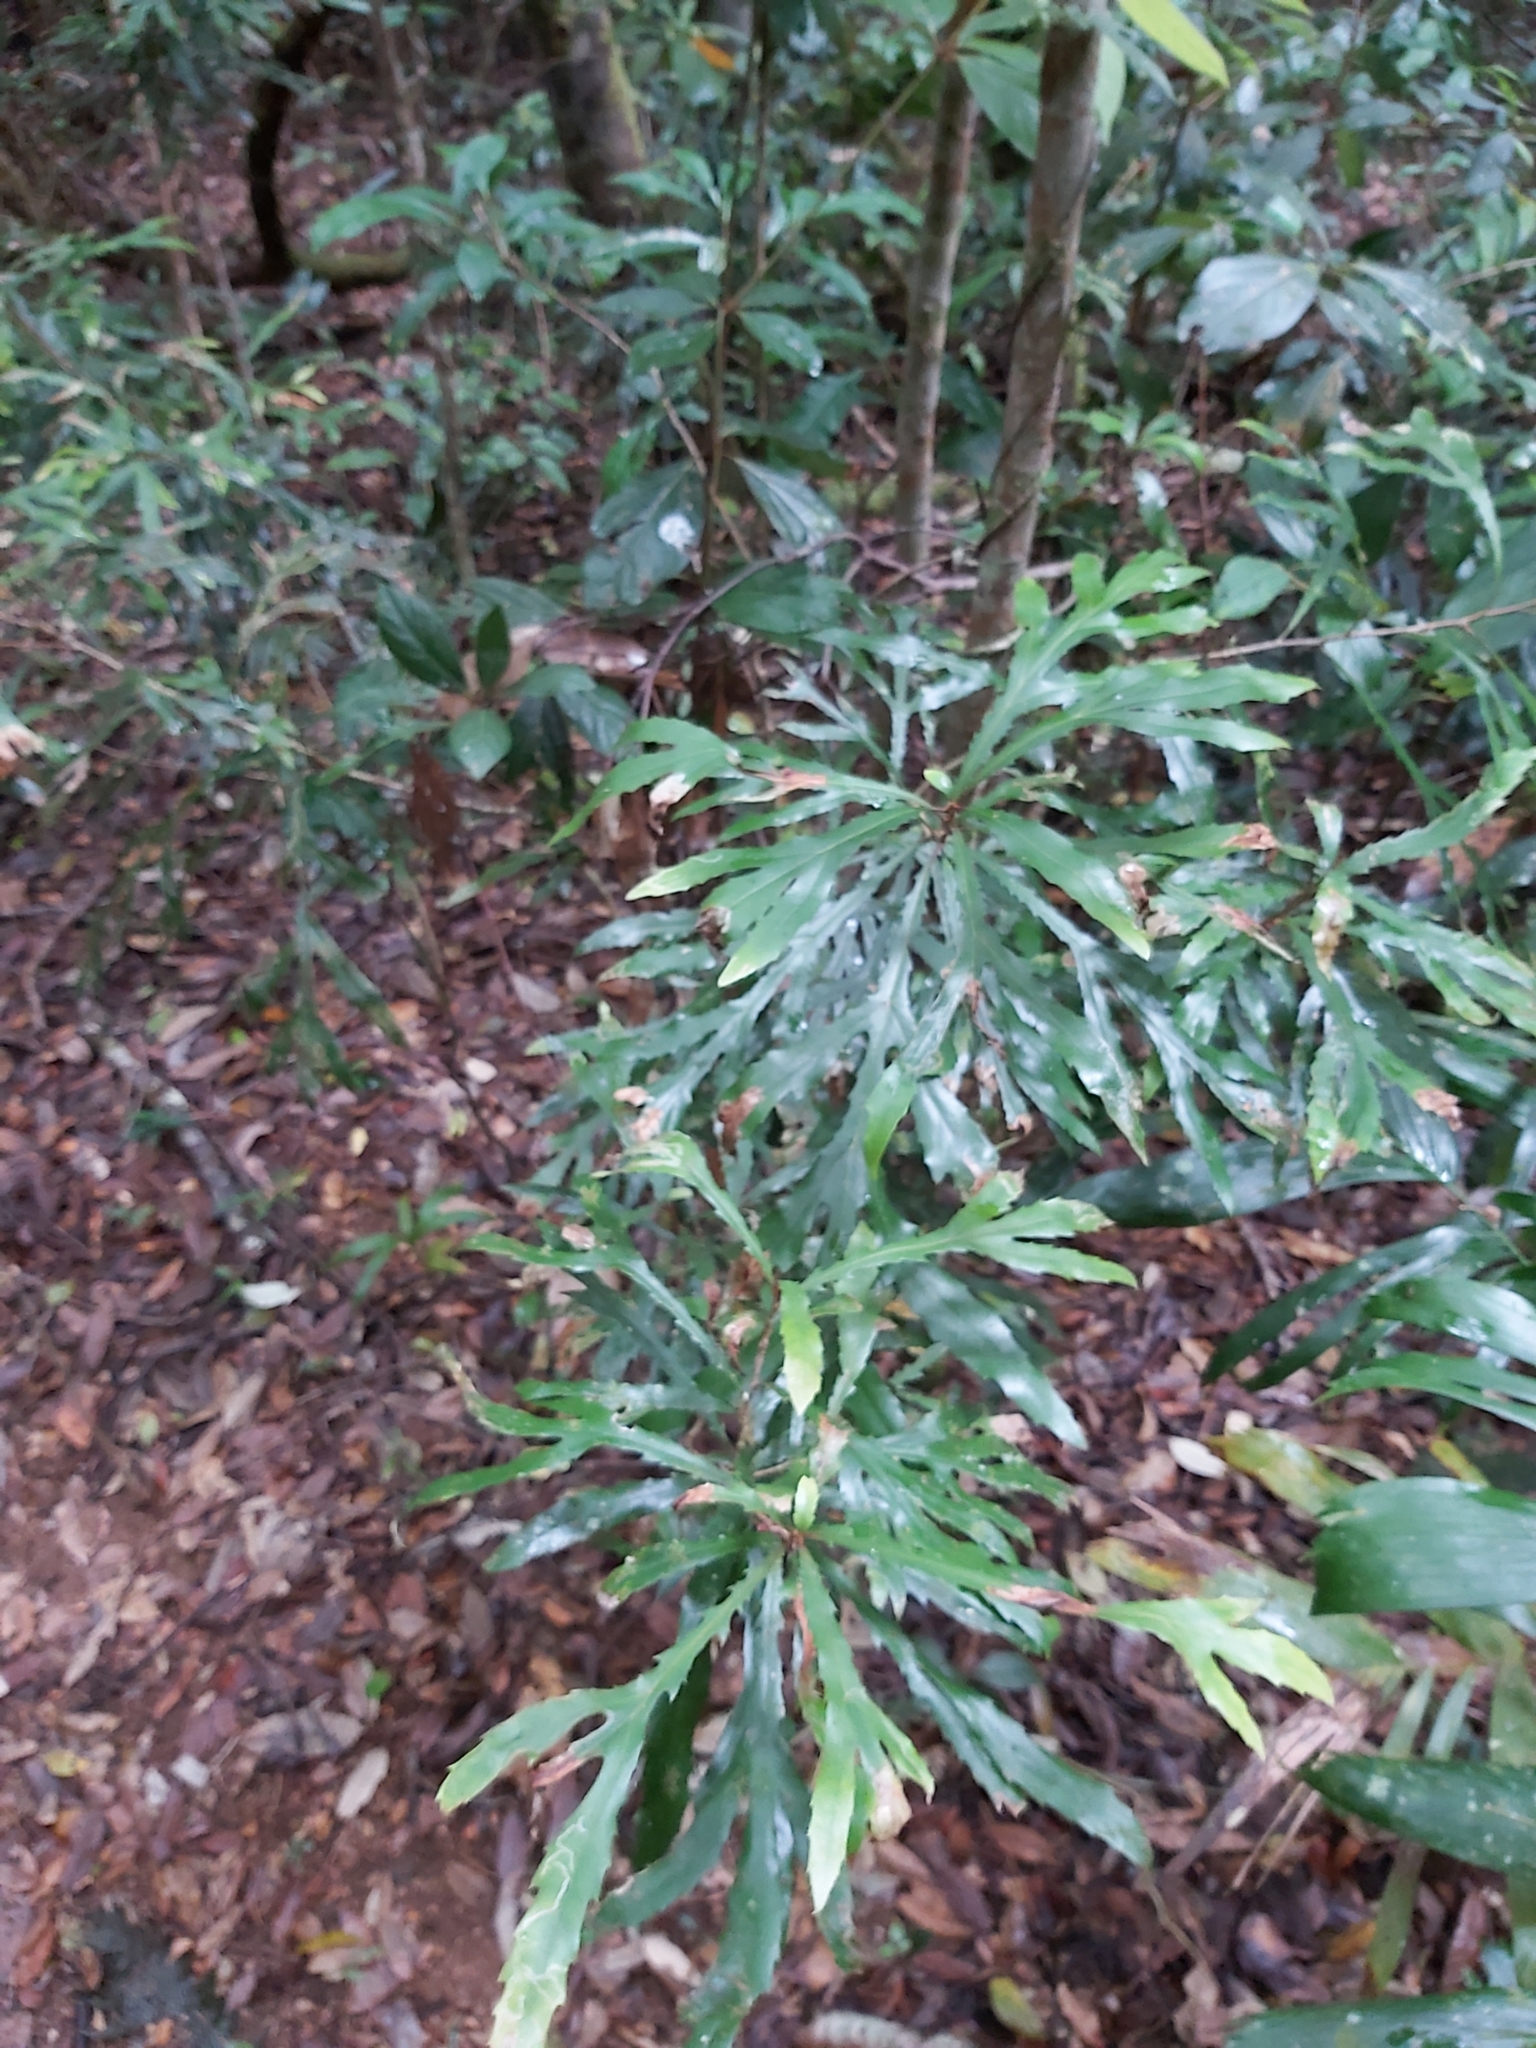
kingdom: Plantae
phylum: Tracheophyta
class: Magnoliopsida
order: Proteales
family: Proteaceae
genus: Orites
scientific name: Orites excelsus
